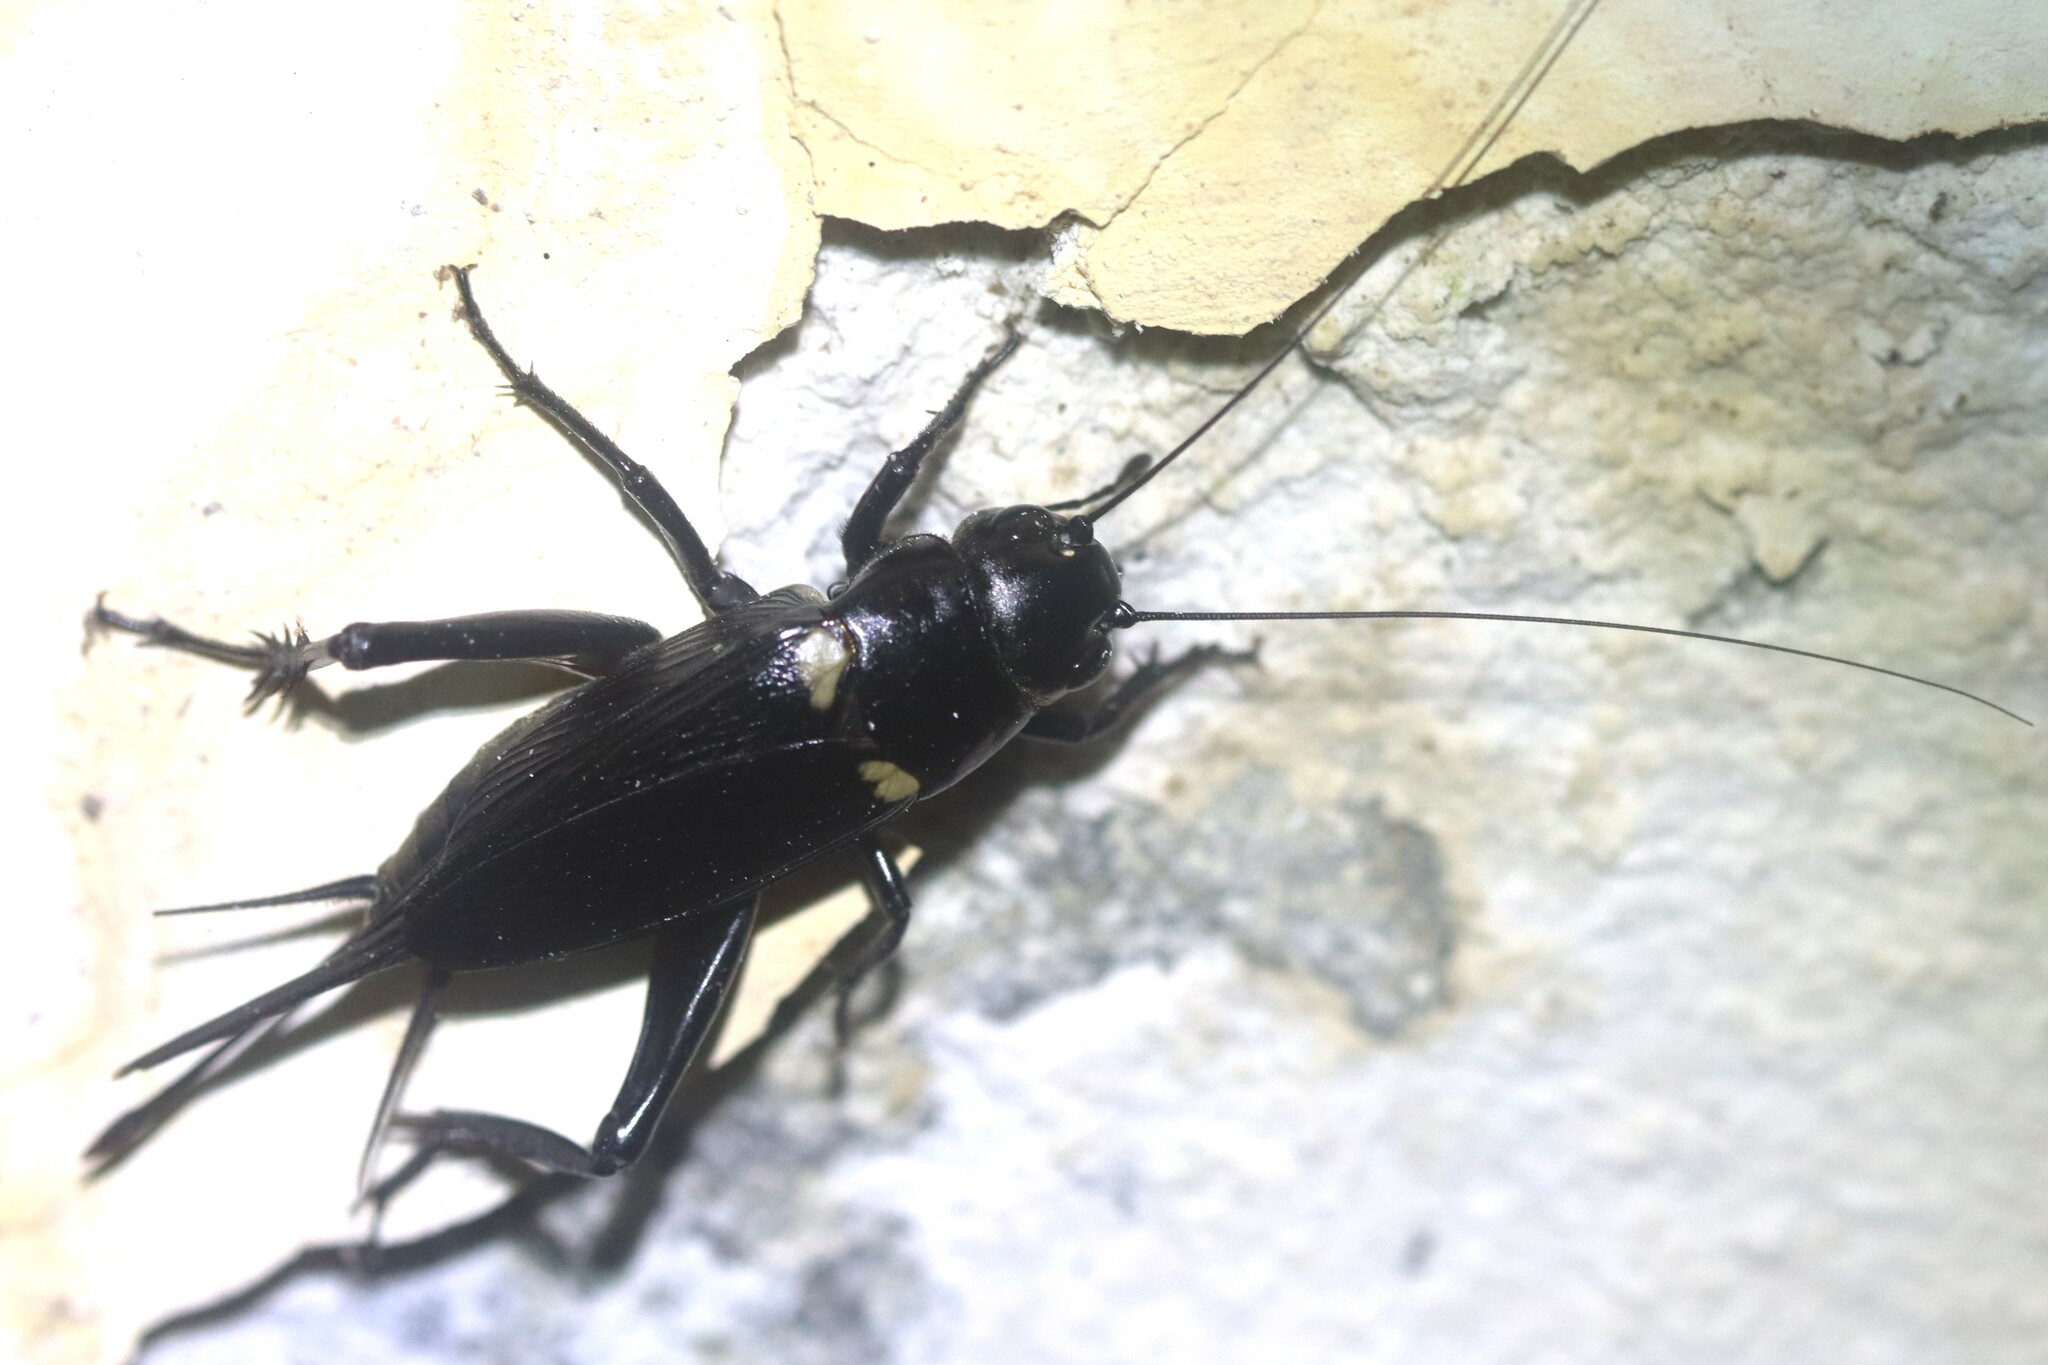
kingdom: Animalia
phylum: Arthropoda
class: Insecta
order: Orthoptera
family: Gryllidae
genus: Gryllus
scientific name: Gryllus bimaculatus
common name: Two-spotted cricket
